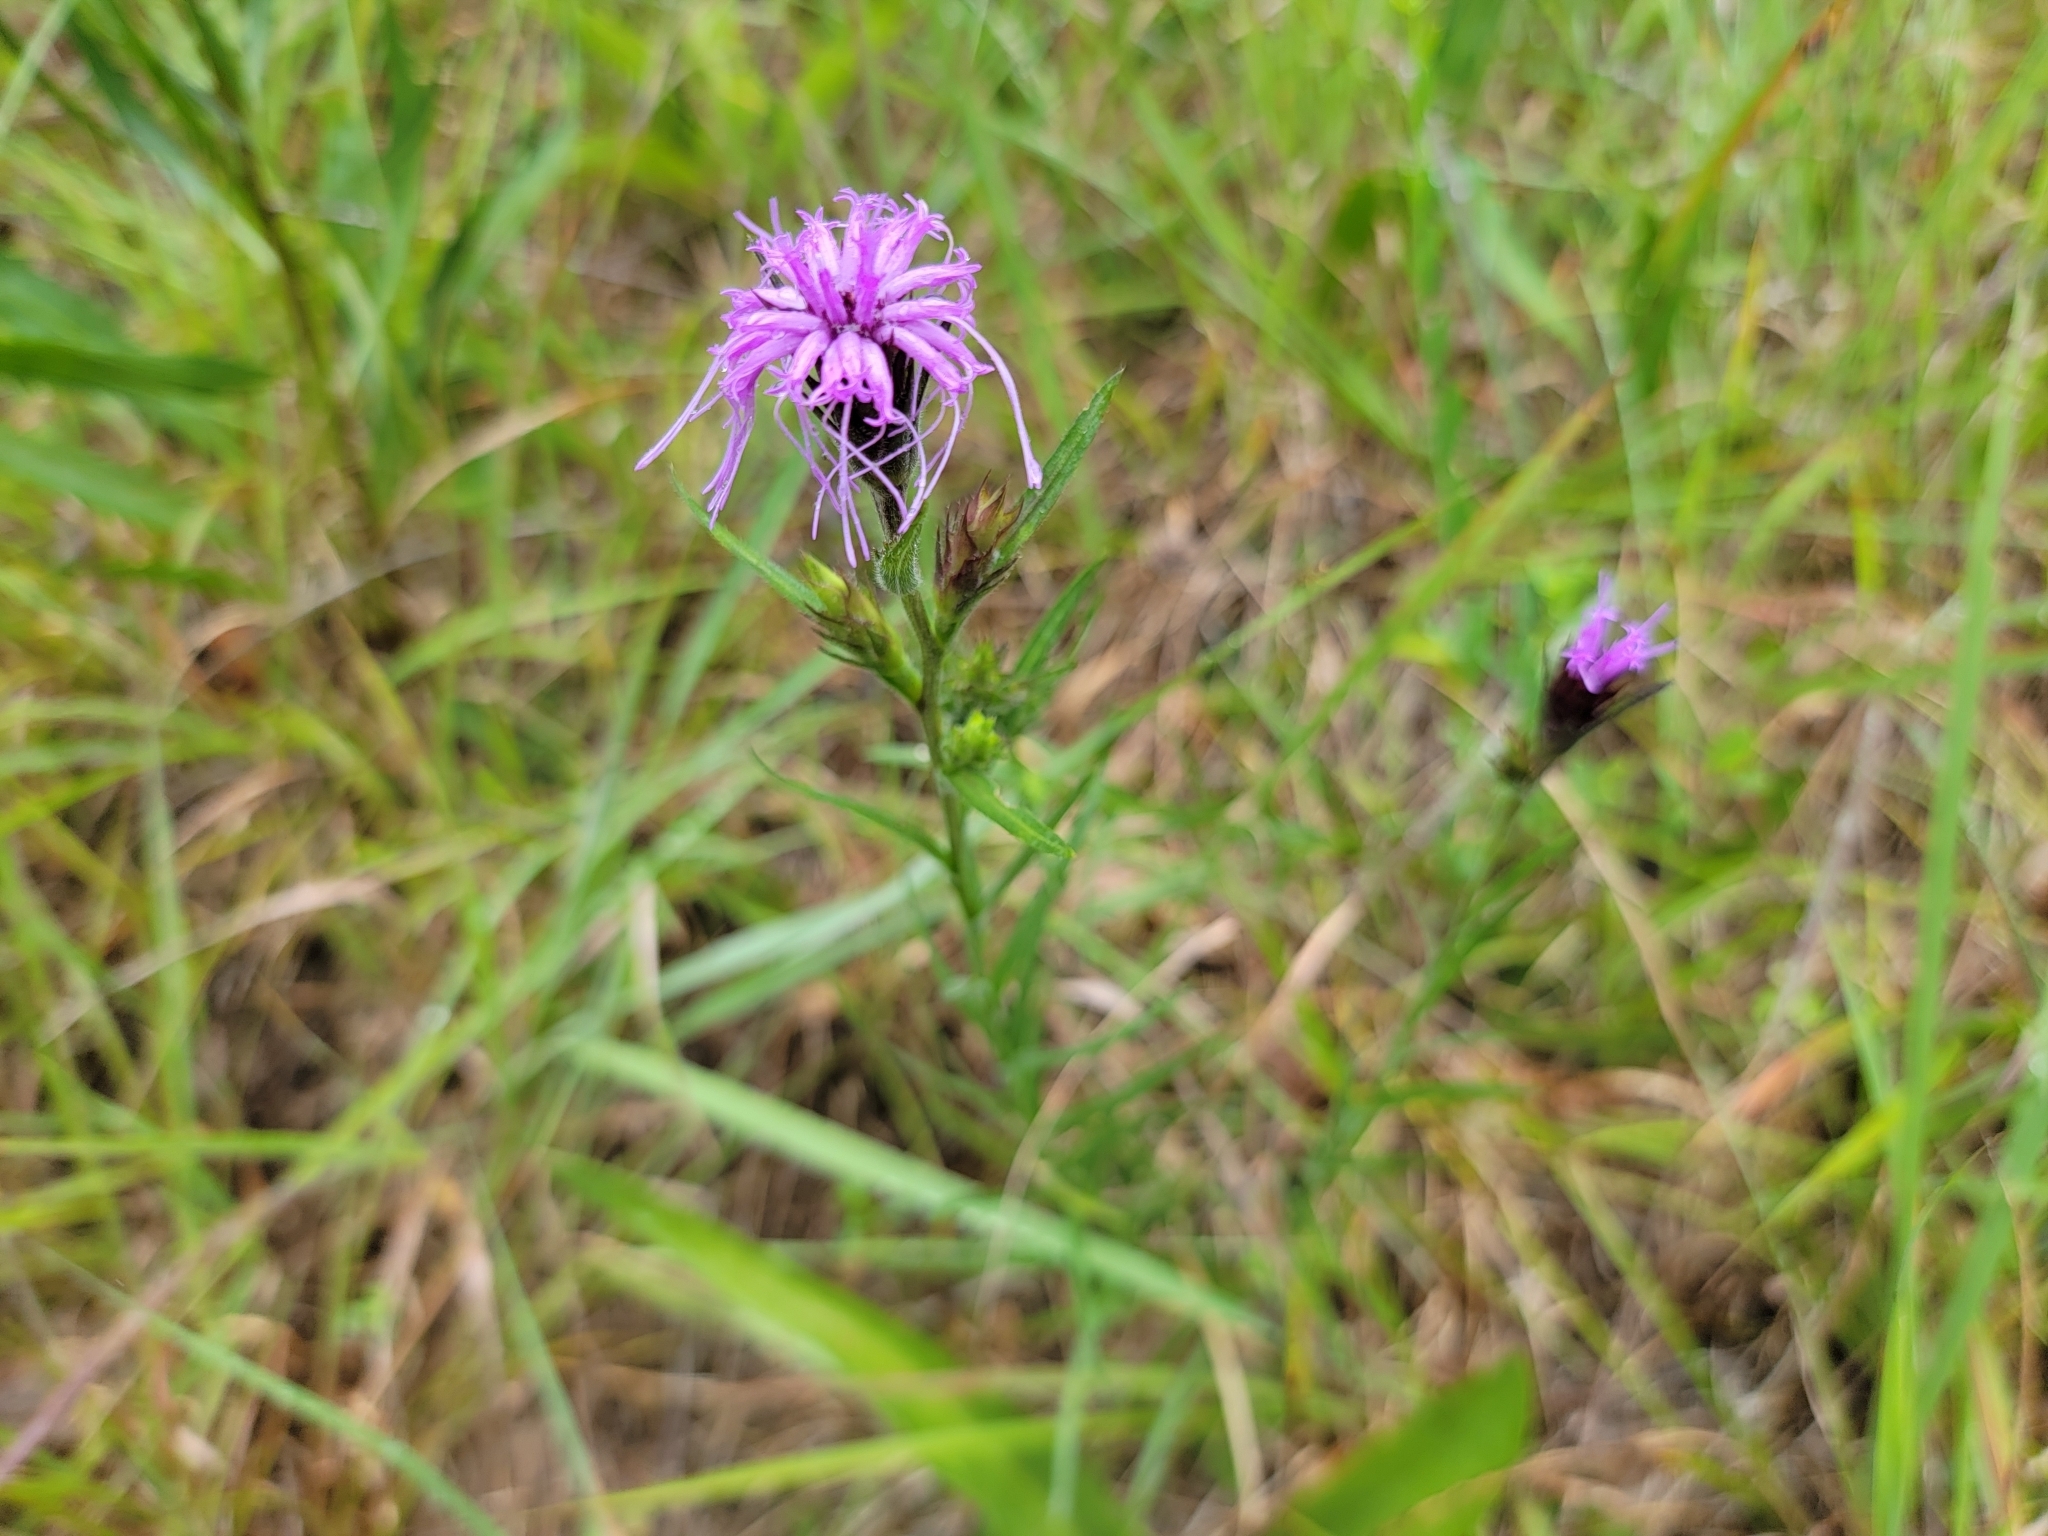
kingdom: Plantae
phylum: Tracheophyta
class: Magnoliopsida
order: Asterales
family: Asteraceae
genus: Liatris
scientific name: Liatris squarrosa
